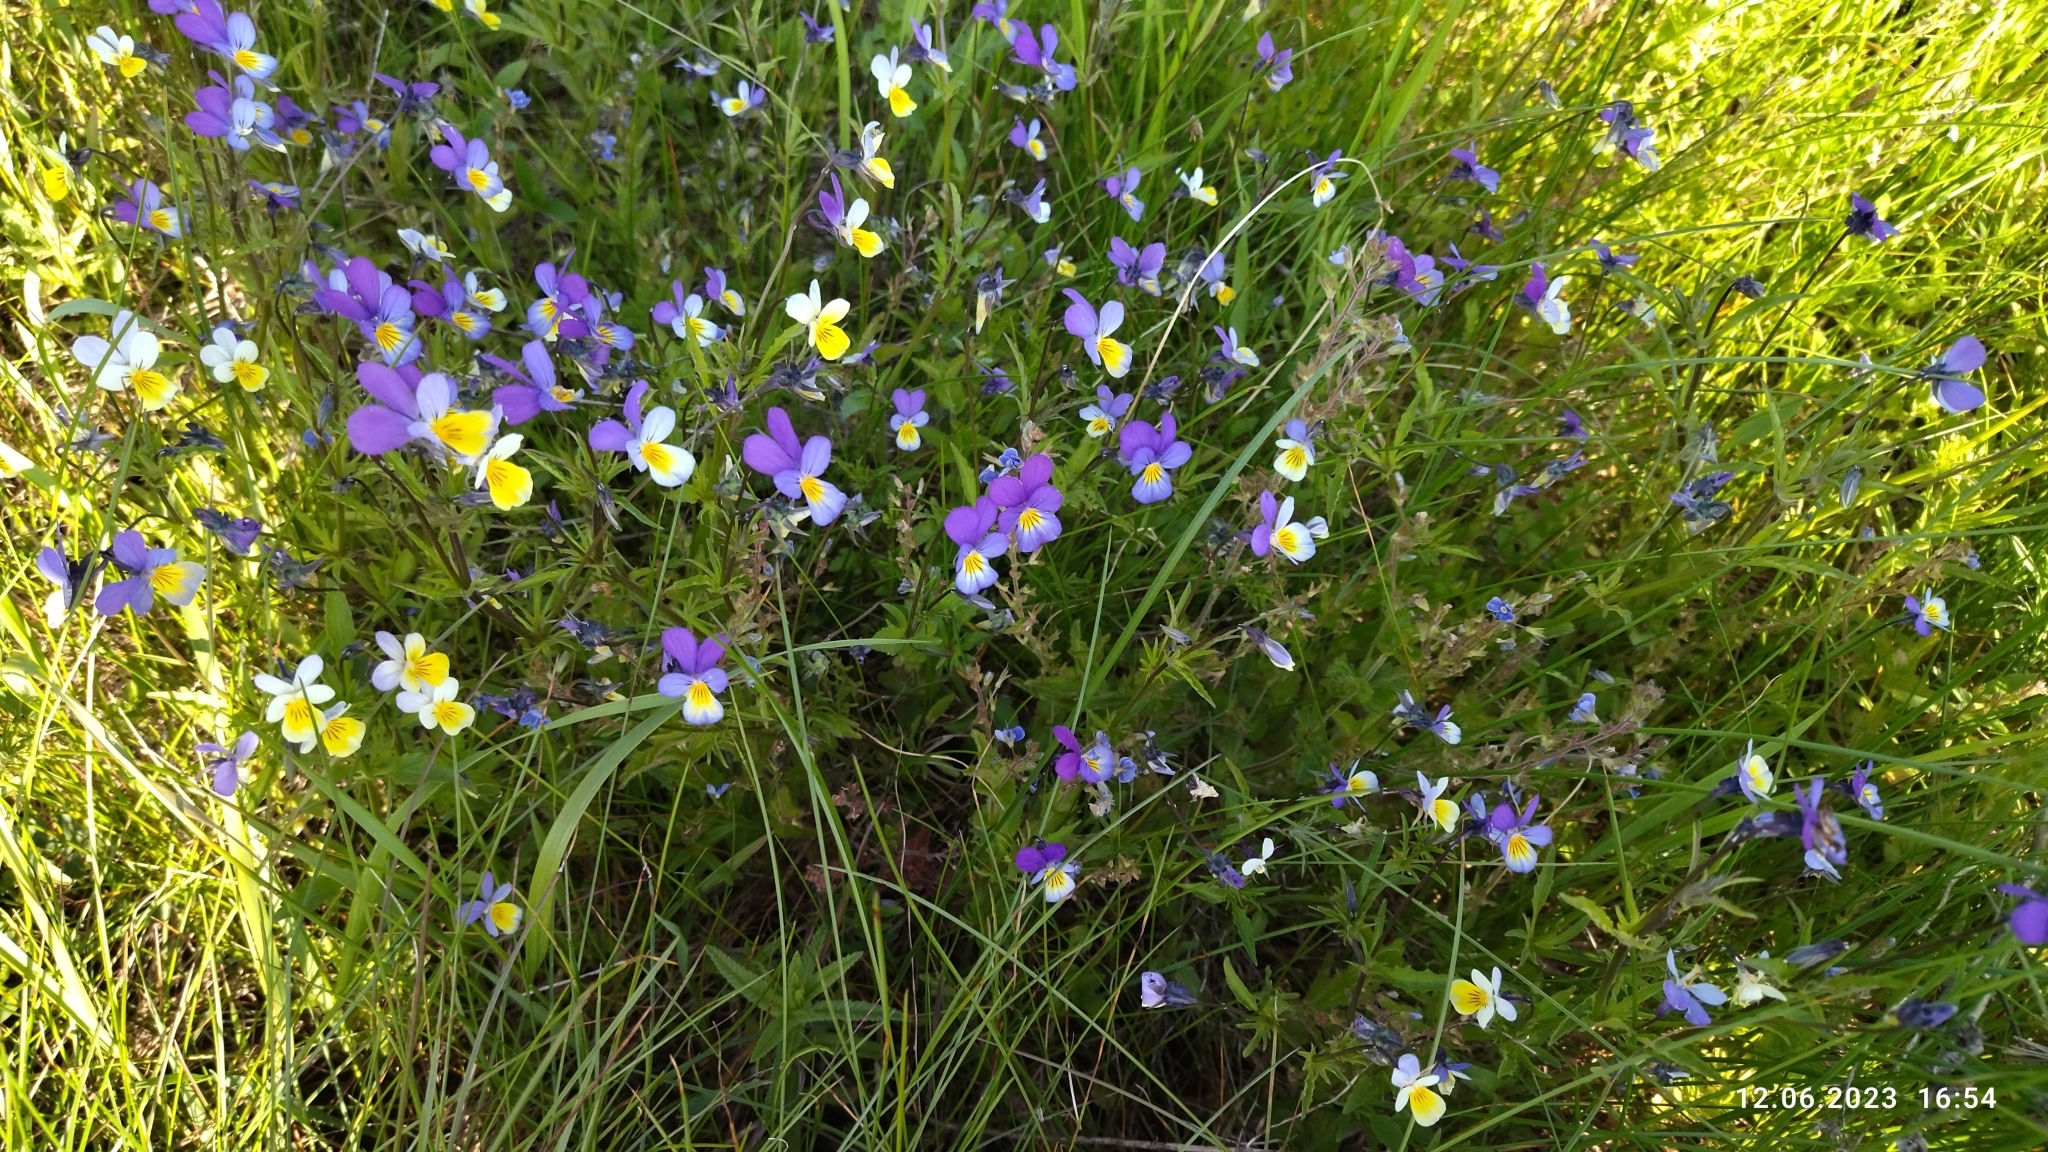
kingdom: Plantae
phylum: Tracheophyta
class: Magnoliopsida
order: Malpighiales
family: Violaceae
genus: Viola
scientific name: Viola tricolor
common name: Pansy
